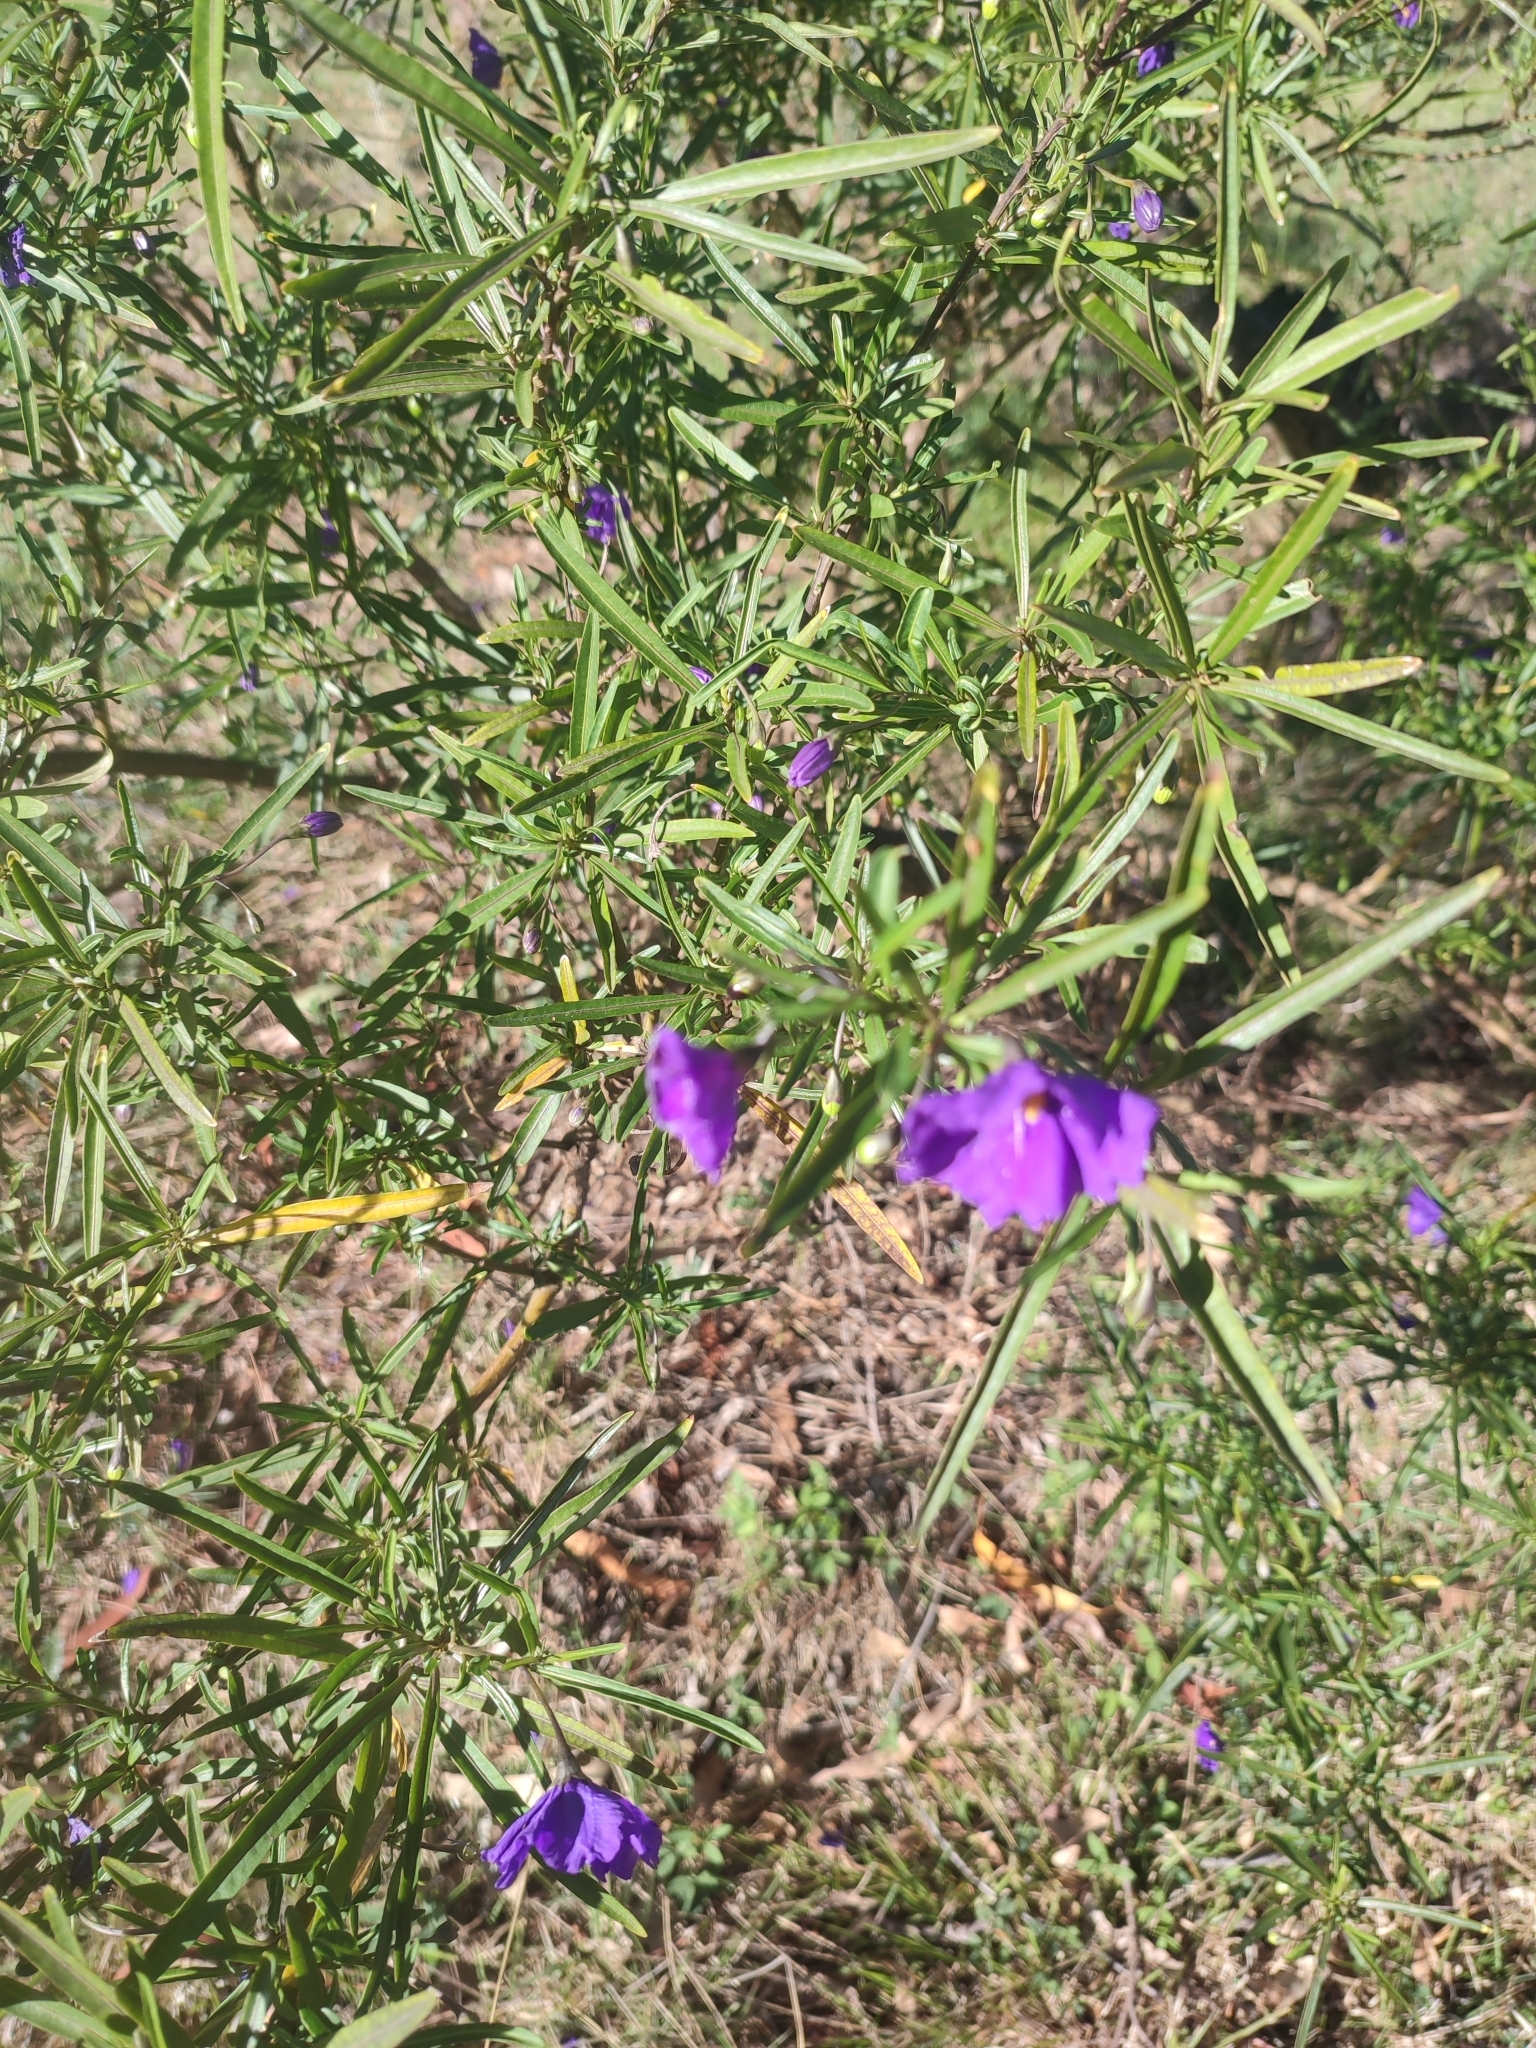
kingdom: Plantae
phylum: Tracheophyta
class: Magnoliopsida
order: Solanales
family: Solanaceae
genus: Solanum
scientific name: Solanum linearifolium
